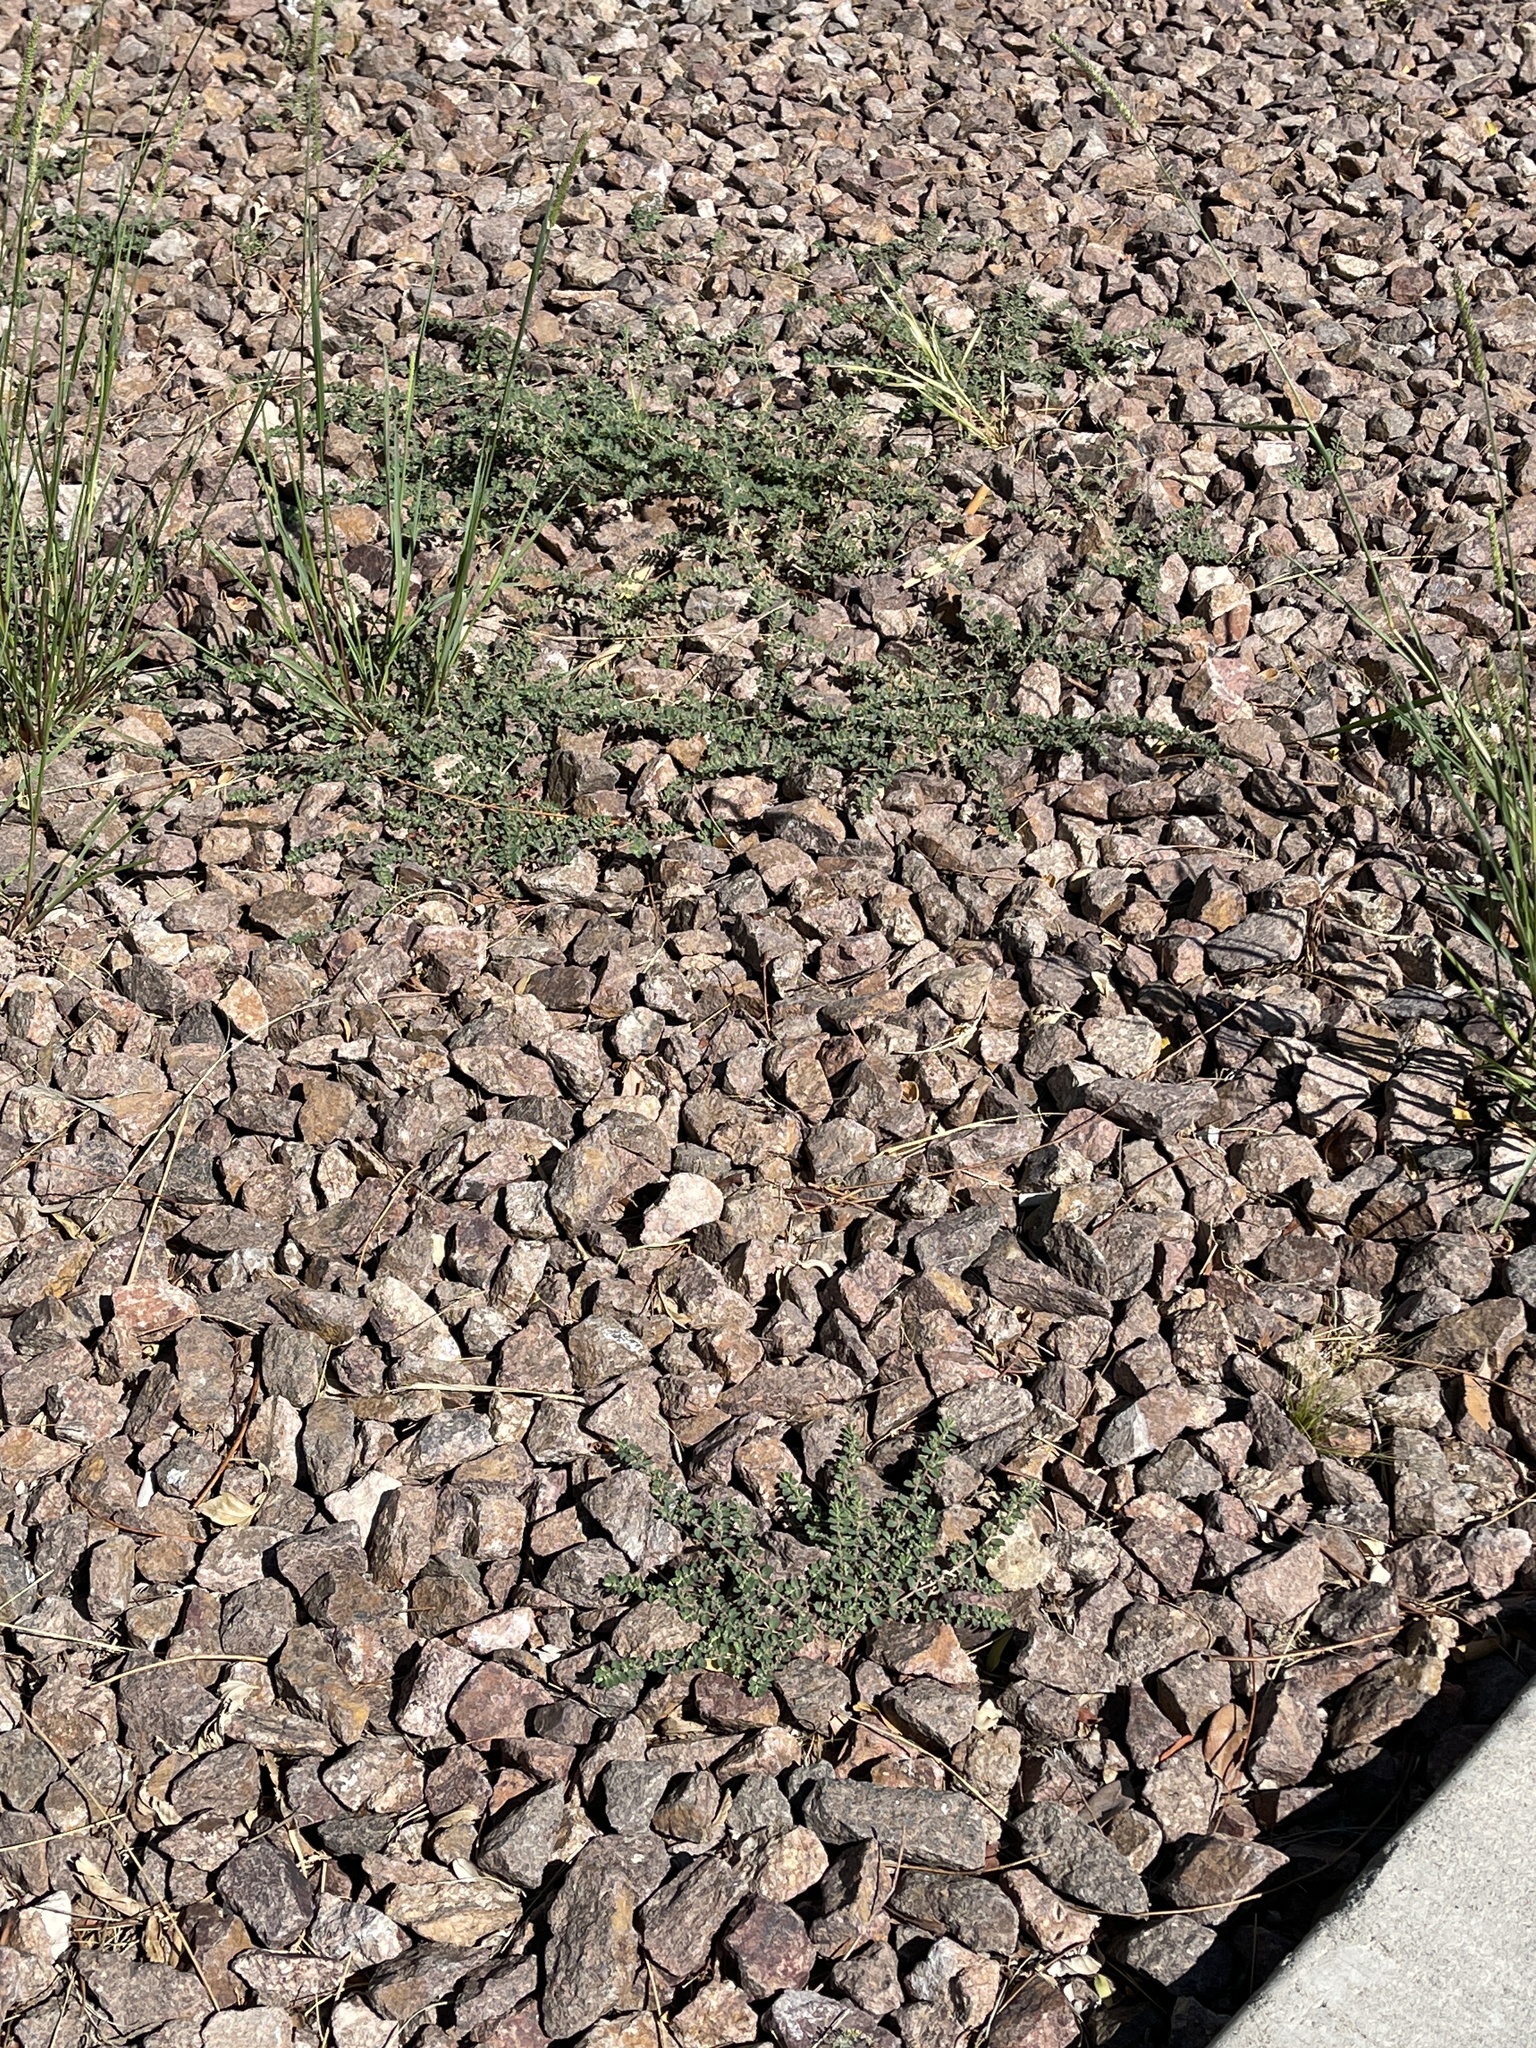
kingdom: Plantae
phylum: Tracheophyta
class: Magnoliopsida
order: Malpighiales
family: Euphorbiaceae
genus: Euphorbia
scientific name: Euphorbia prostrata
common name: Prostrate sandmat
